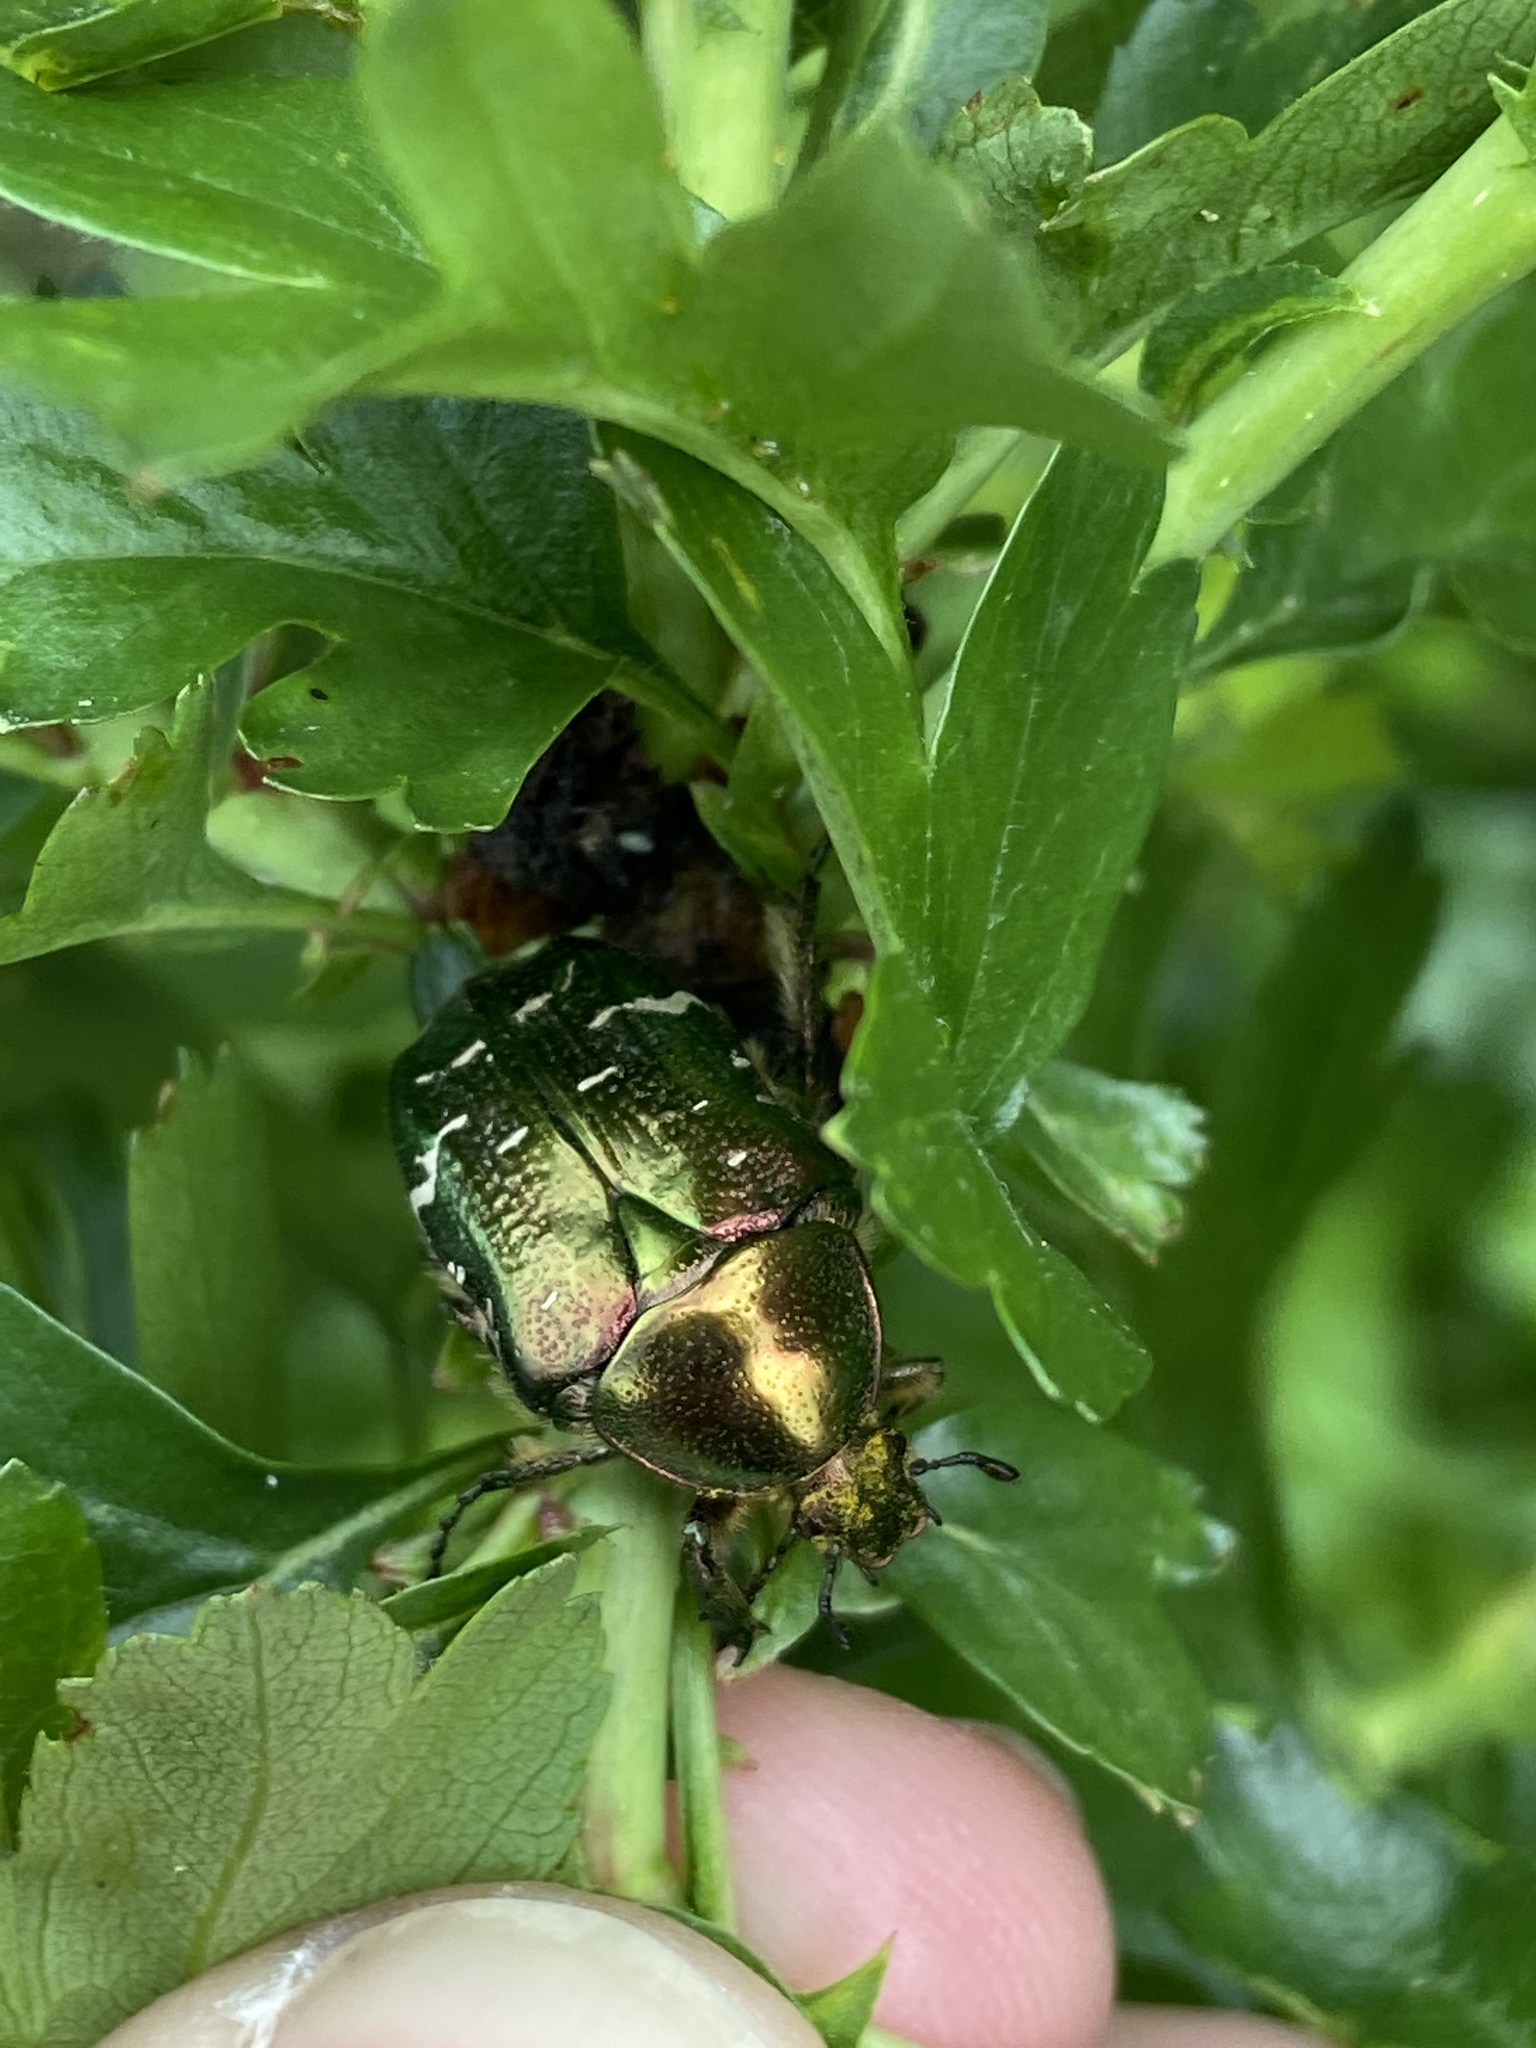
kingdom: Animalia
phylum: Arthropoda
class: Insecta
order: Coleoptera
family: Scarabaeidae
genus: Cetonia
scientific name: Cetonia aurata
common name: Rose chafer
